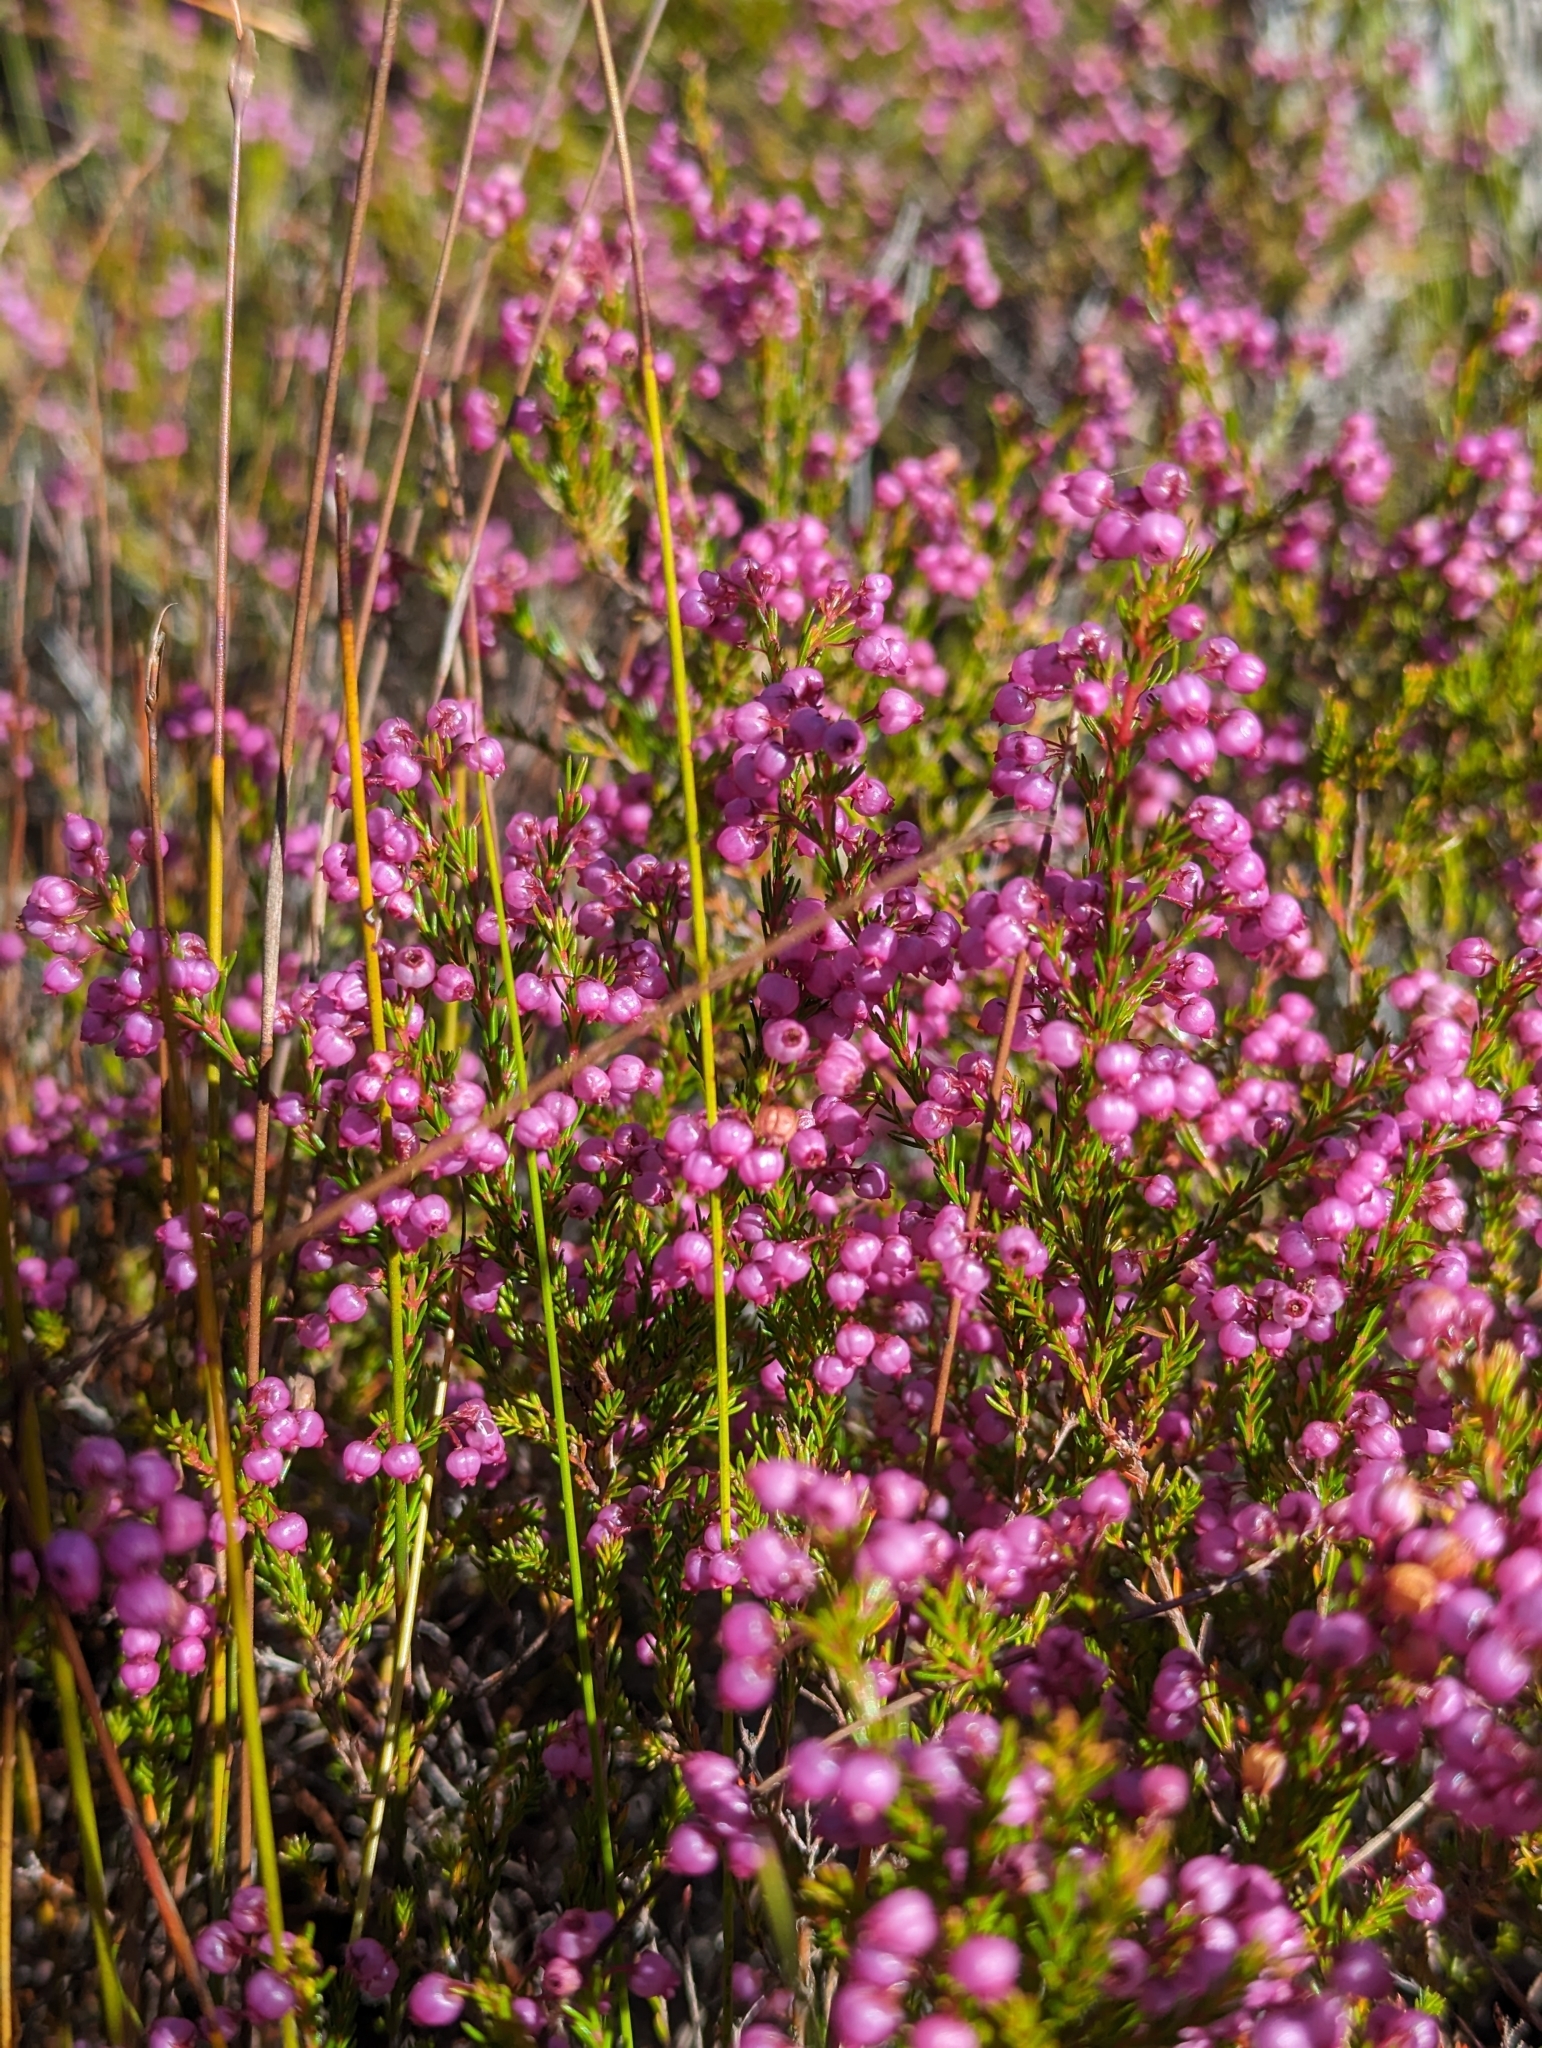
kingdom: Plantae
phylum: Tracheophyta
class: Magnoliopsida
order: Ericales
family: Ericaceae
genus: Erica
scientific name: Erica multumbellifera
